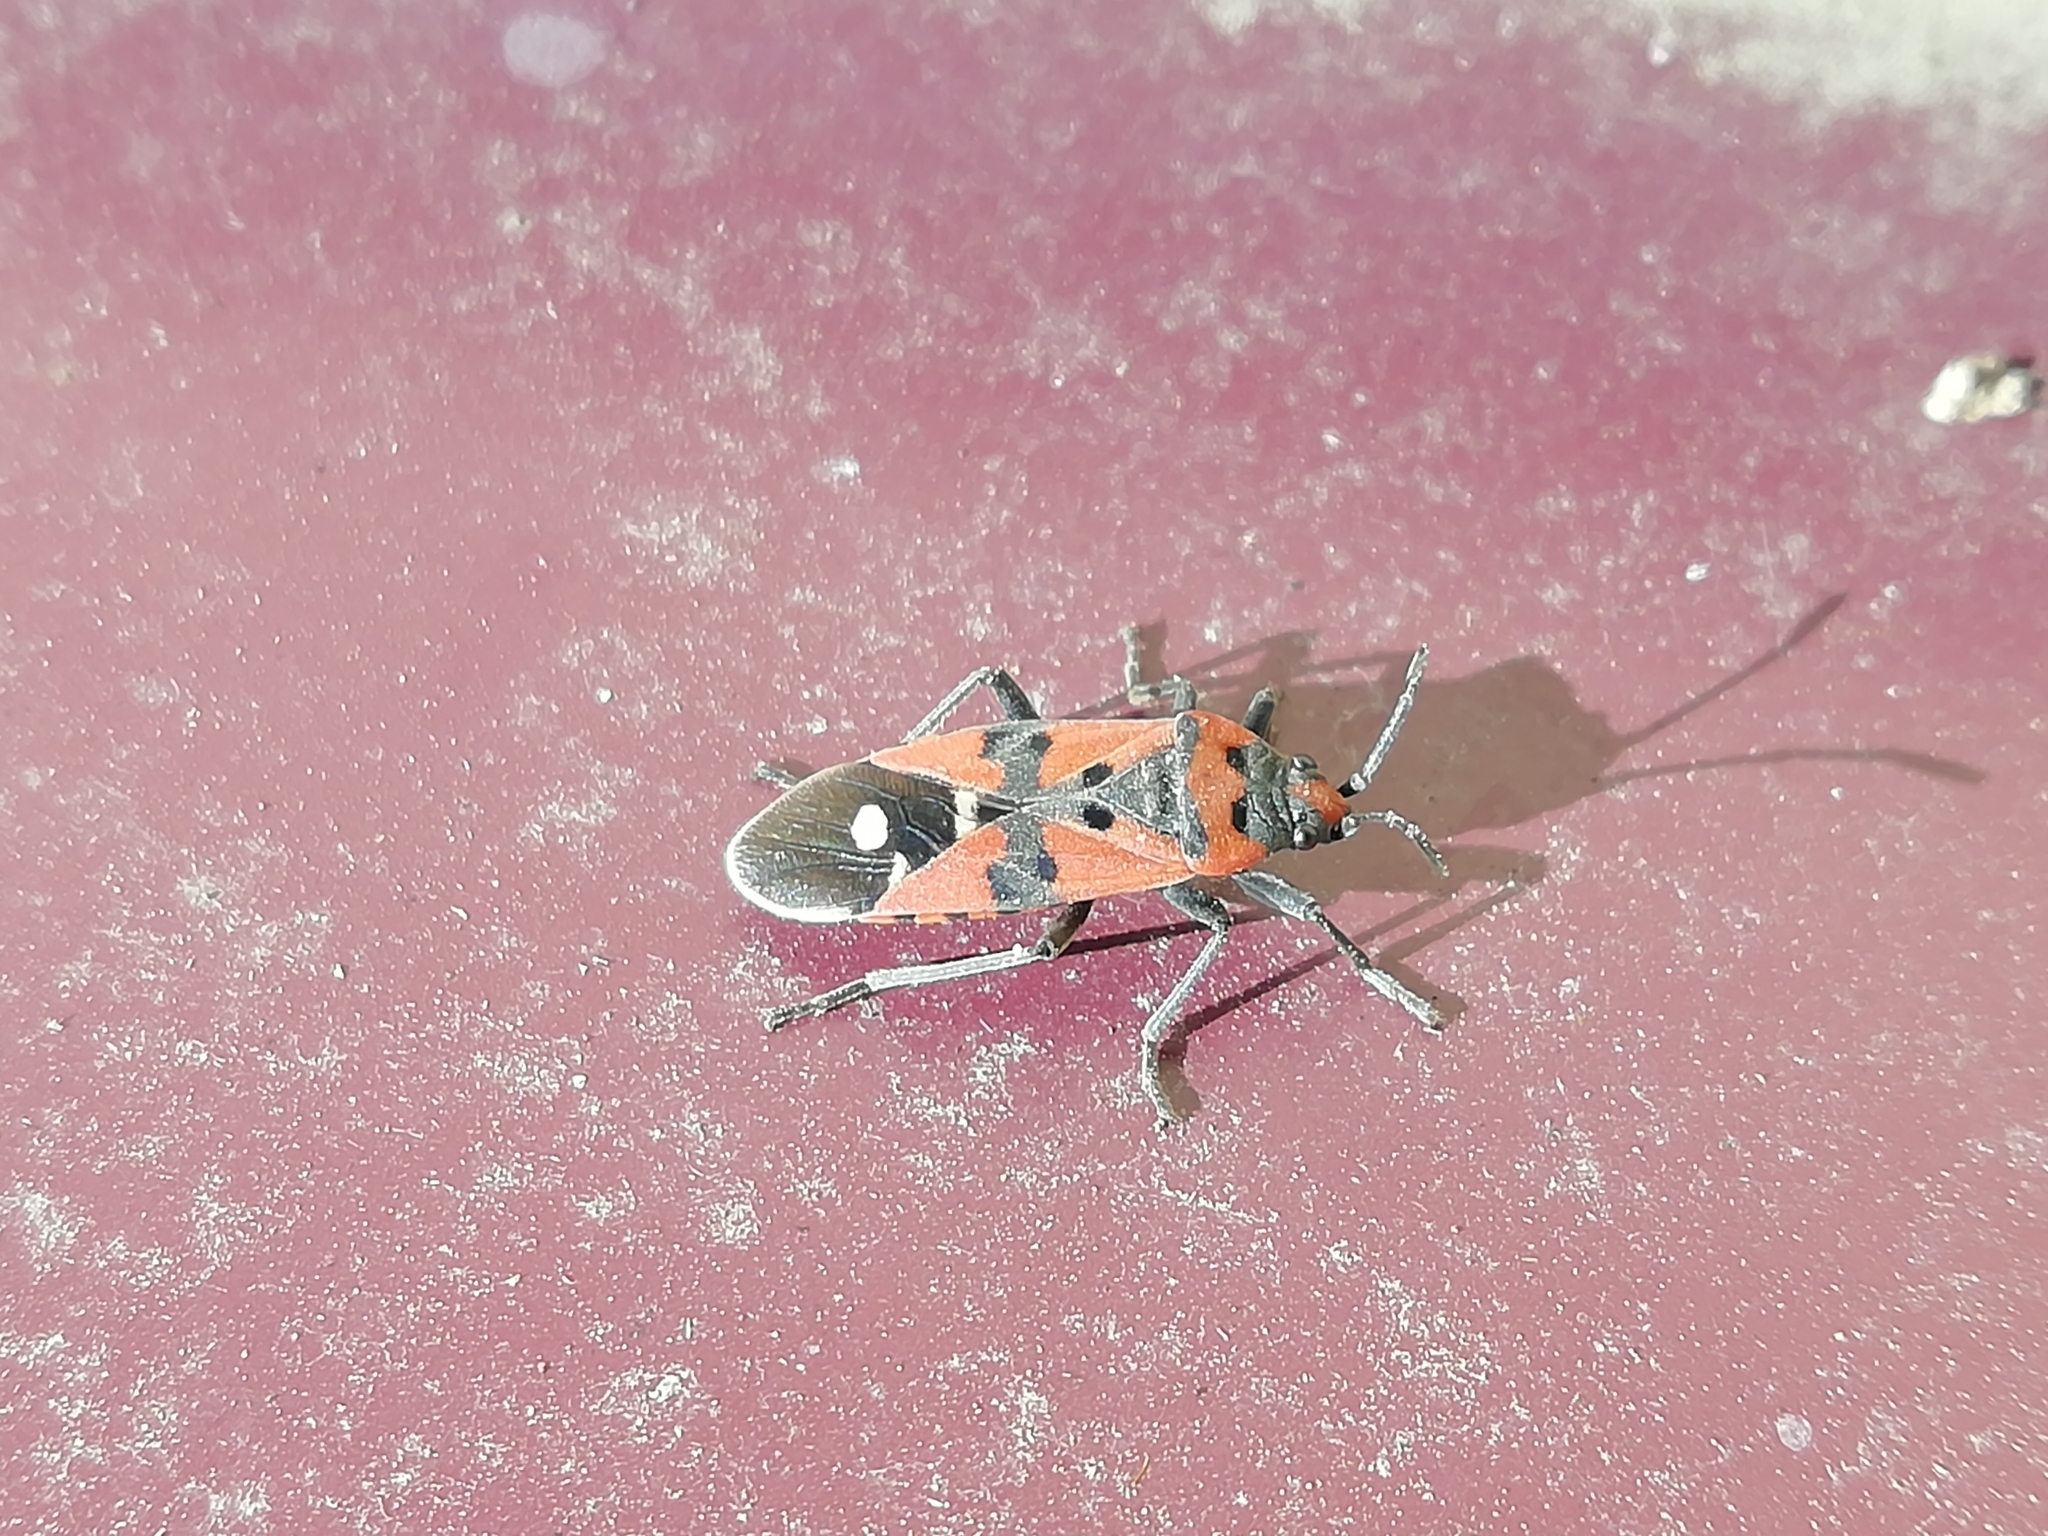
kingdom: Animalia
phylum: Arthropoda
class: Insecta
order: Hemiptera
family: Lygaeidae
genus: Lygaeus
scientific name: Lygaeus equestris
